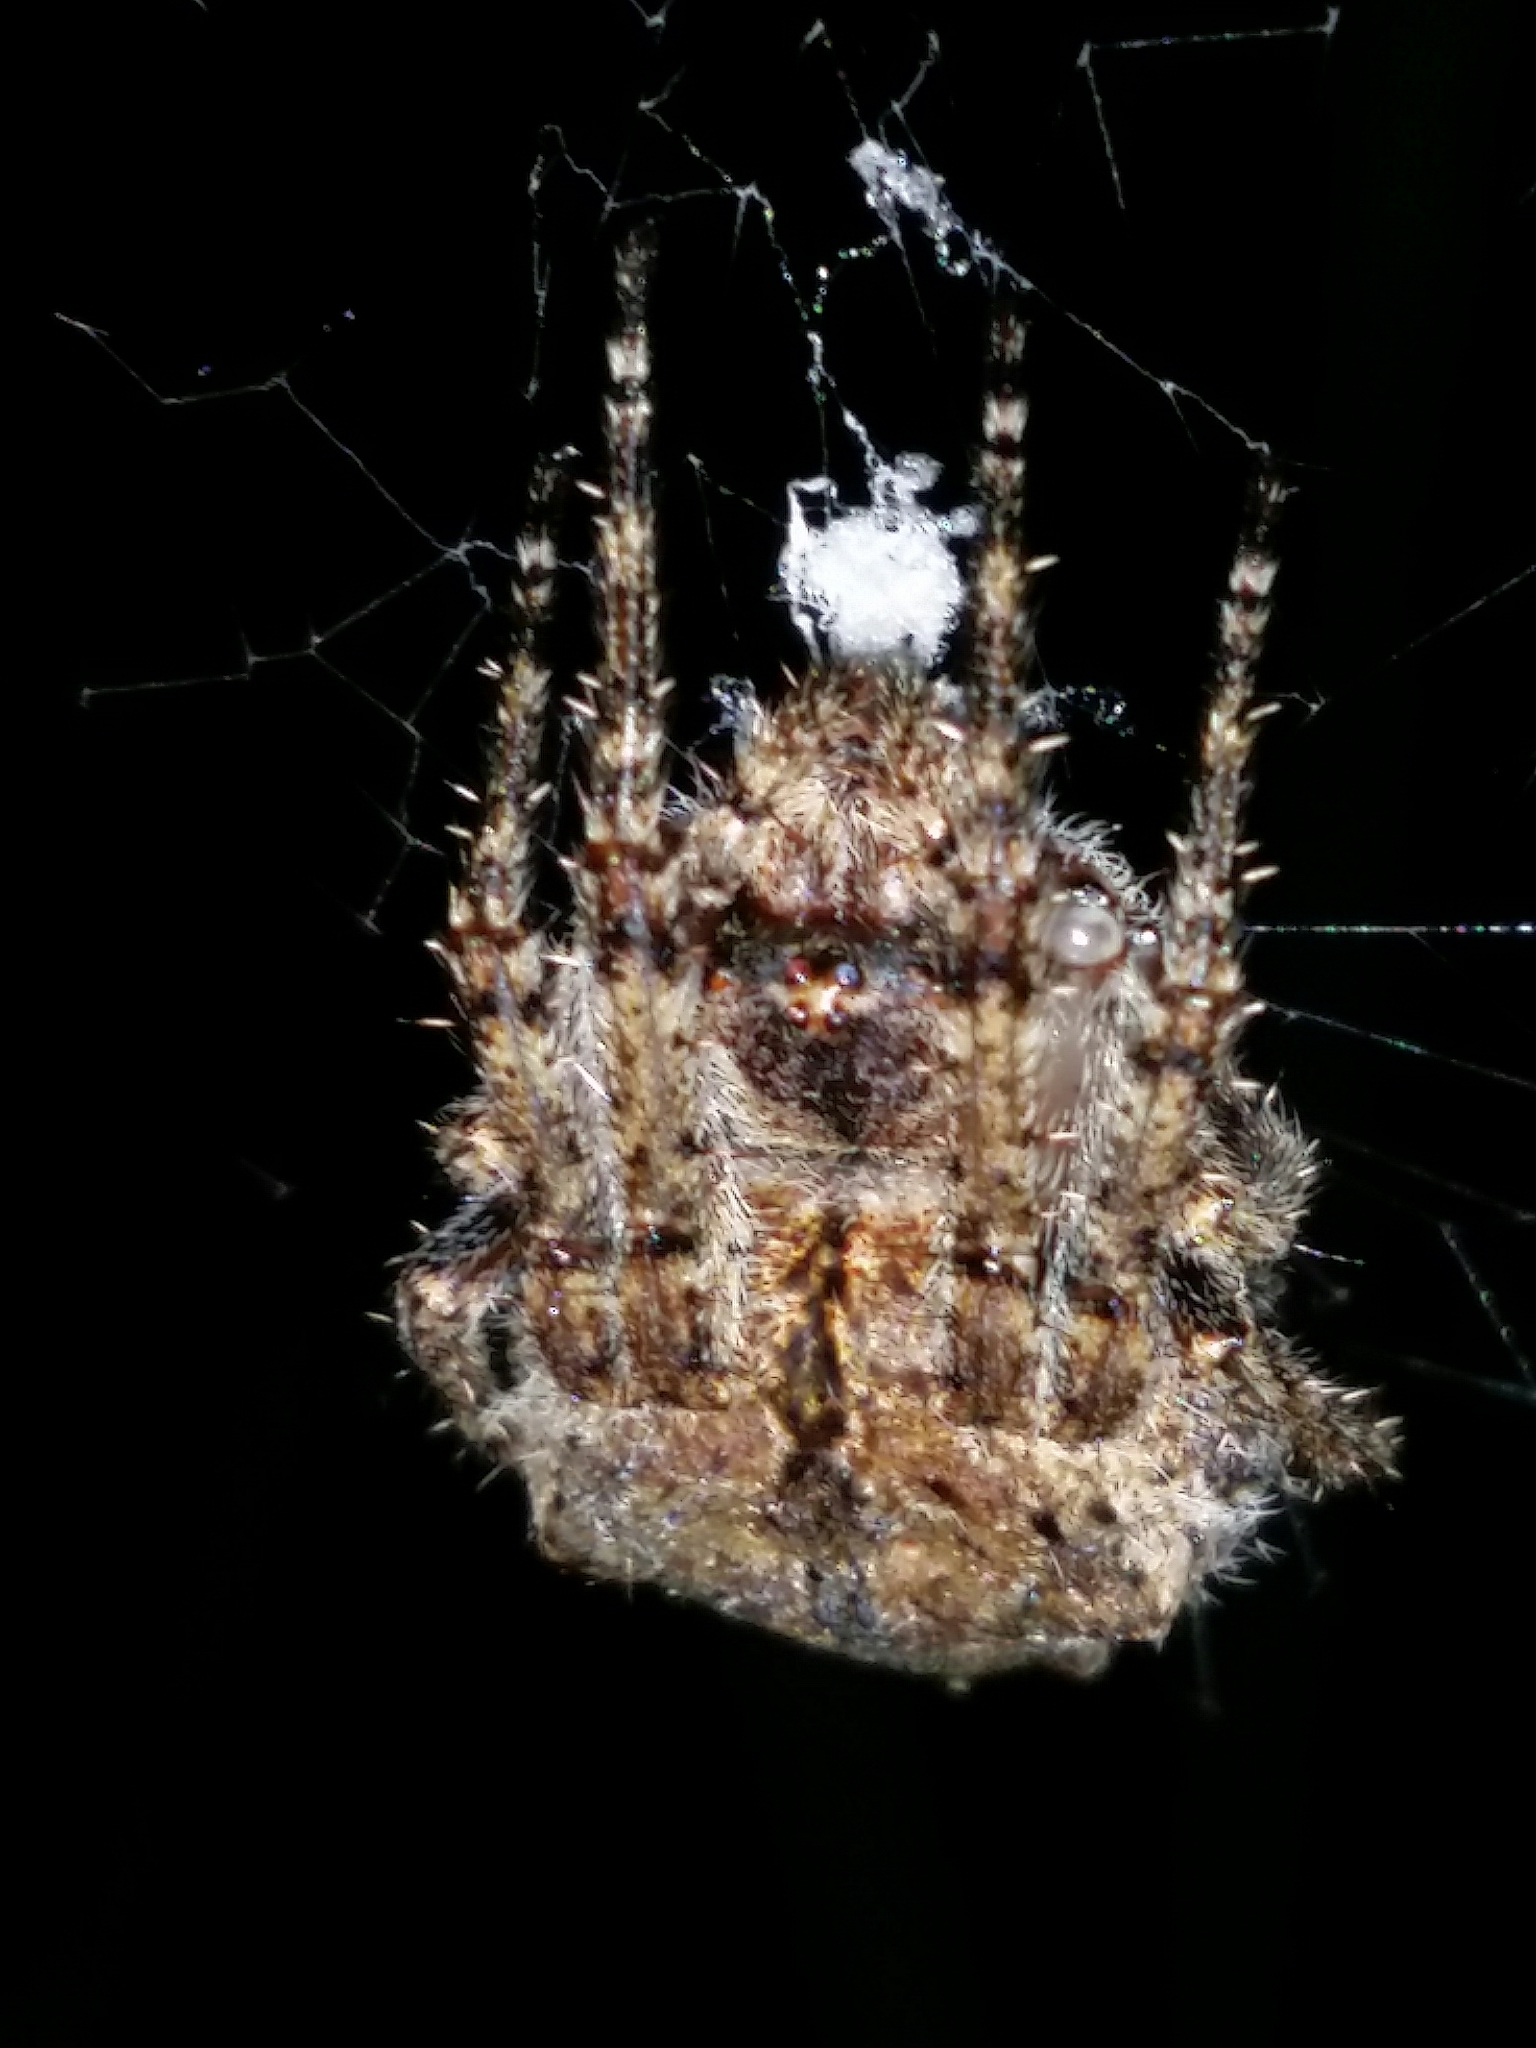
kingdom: Animalia
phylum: Arthropoda
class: Arachnida
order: Araneae
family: Araneidae
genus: Eriophora
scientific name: Eriophora pustulosa
